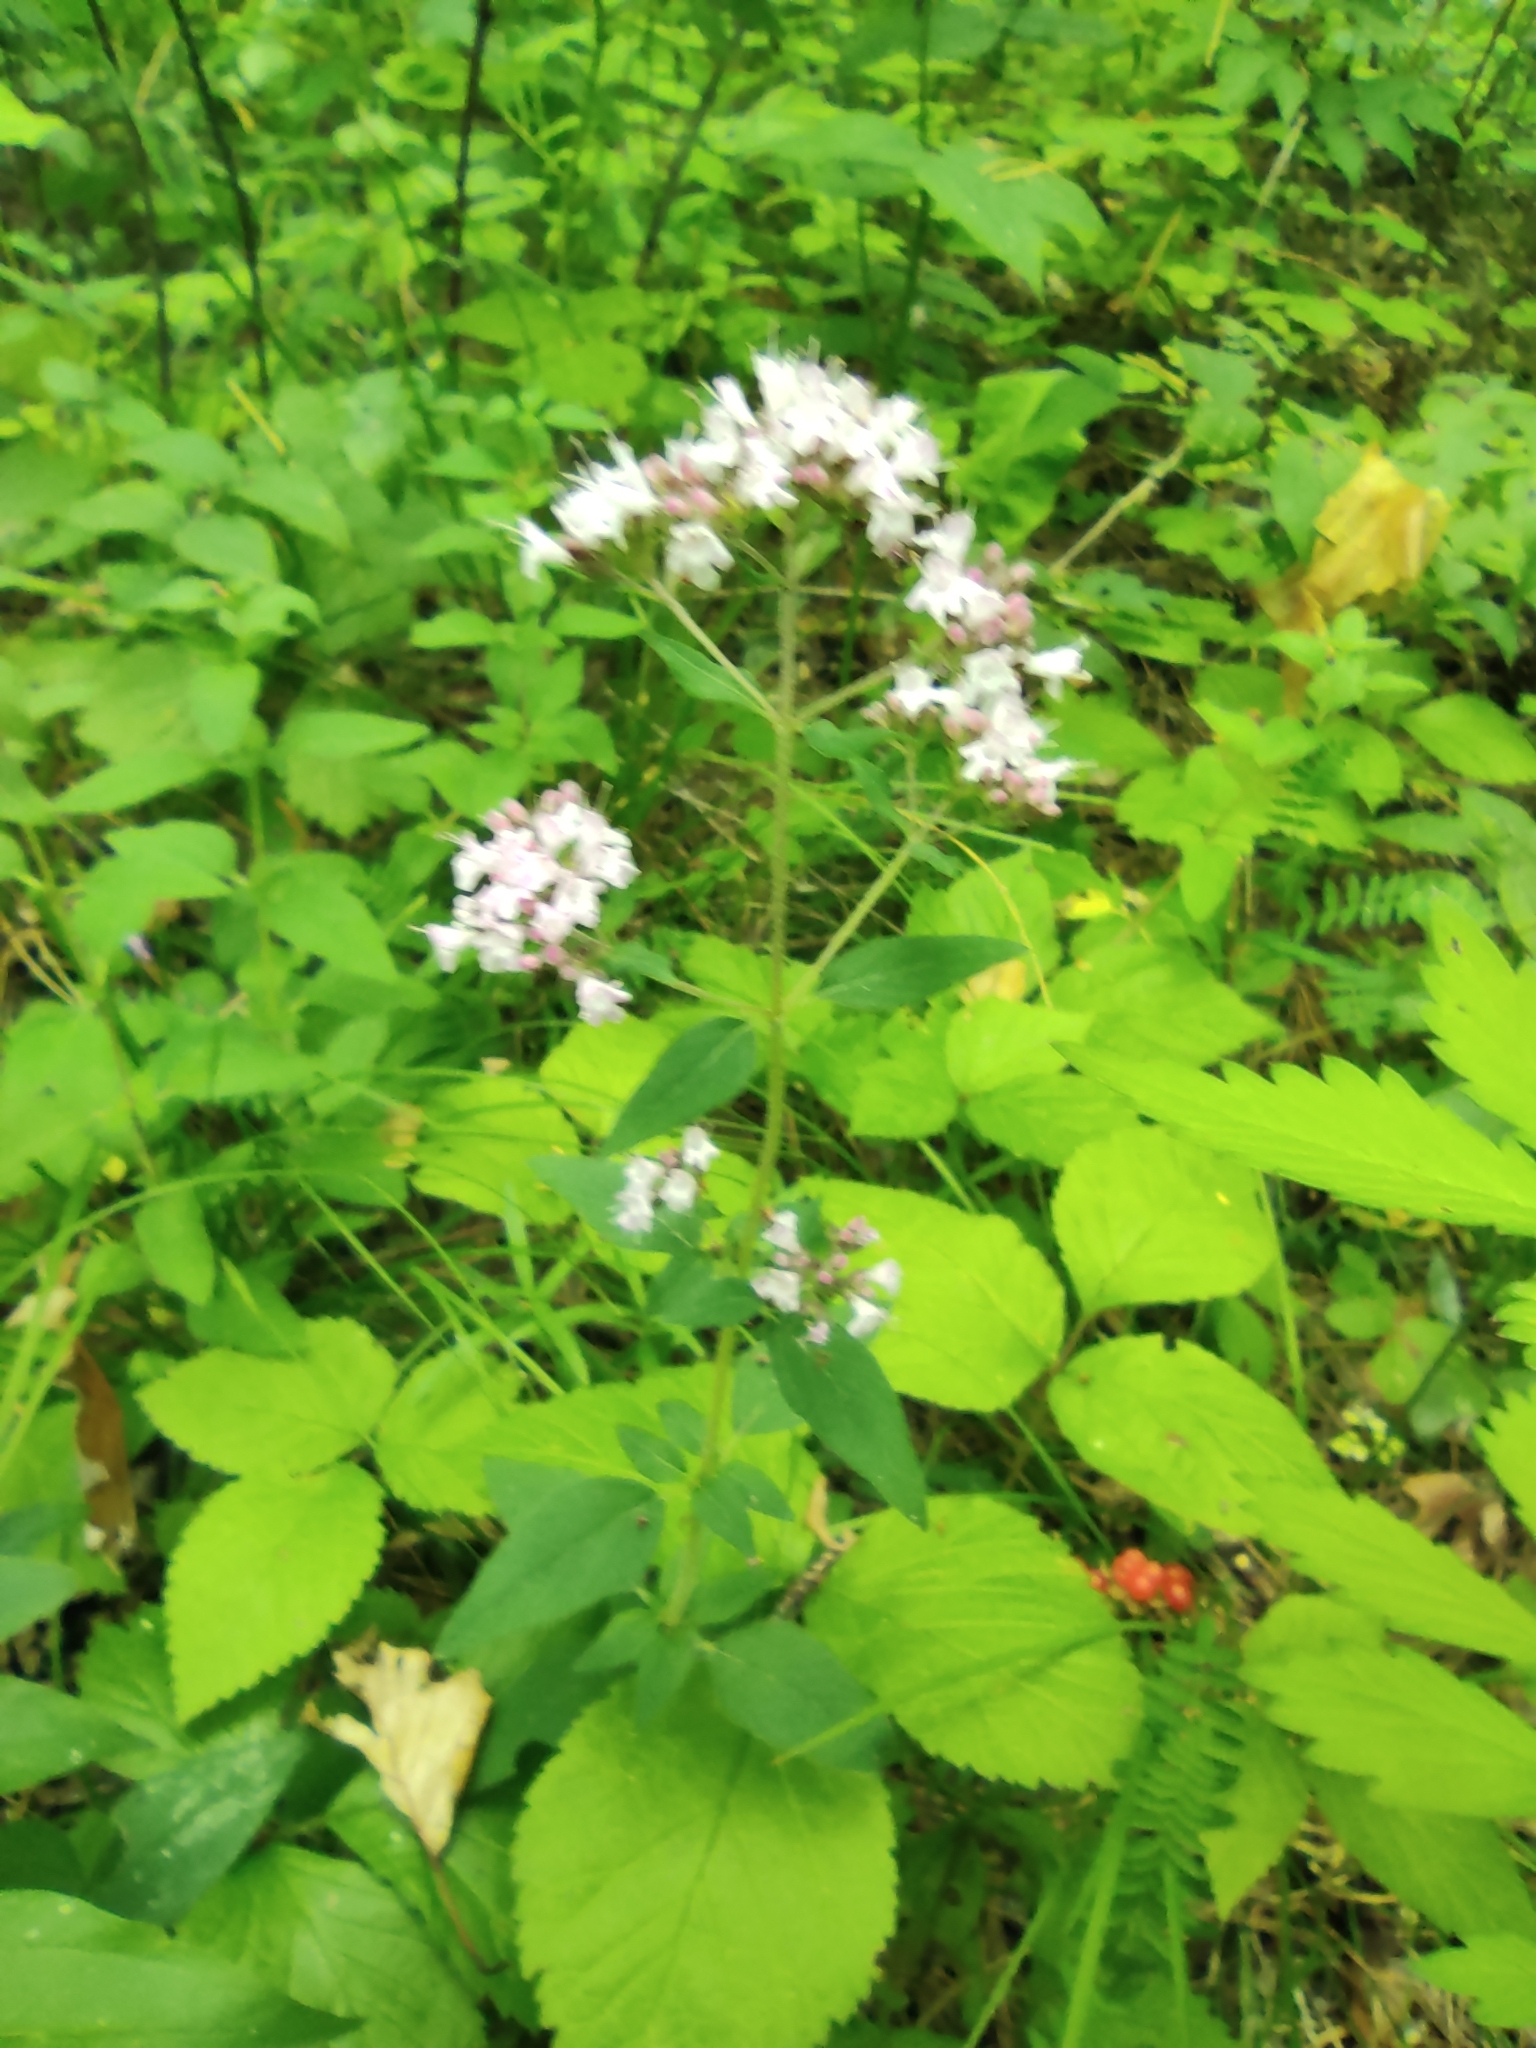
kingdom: Plantae
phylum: Tracheophyta
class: Magnoliopsida
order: Lamiales
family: Lamiaceae
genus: Origanum
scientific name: Origanum vulgare
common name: Wild marjoram
